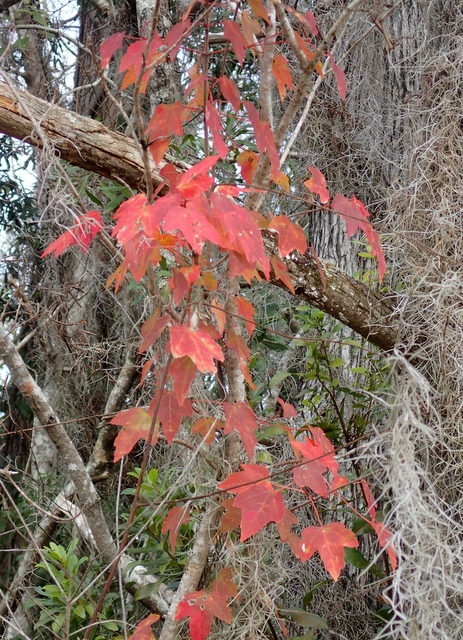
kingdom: Plantae
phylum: Tracheophyta
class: Magnoliopsida
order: Sapindales
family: Sapindaceae
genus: Acer
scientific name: Acer rubrum
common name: Red maple
